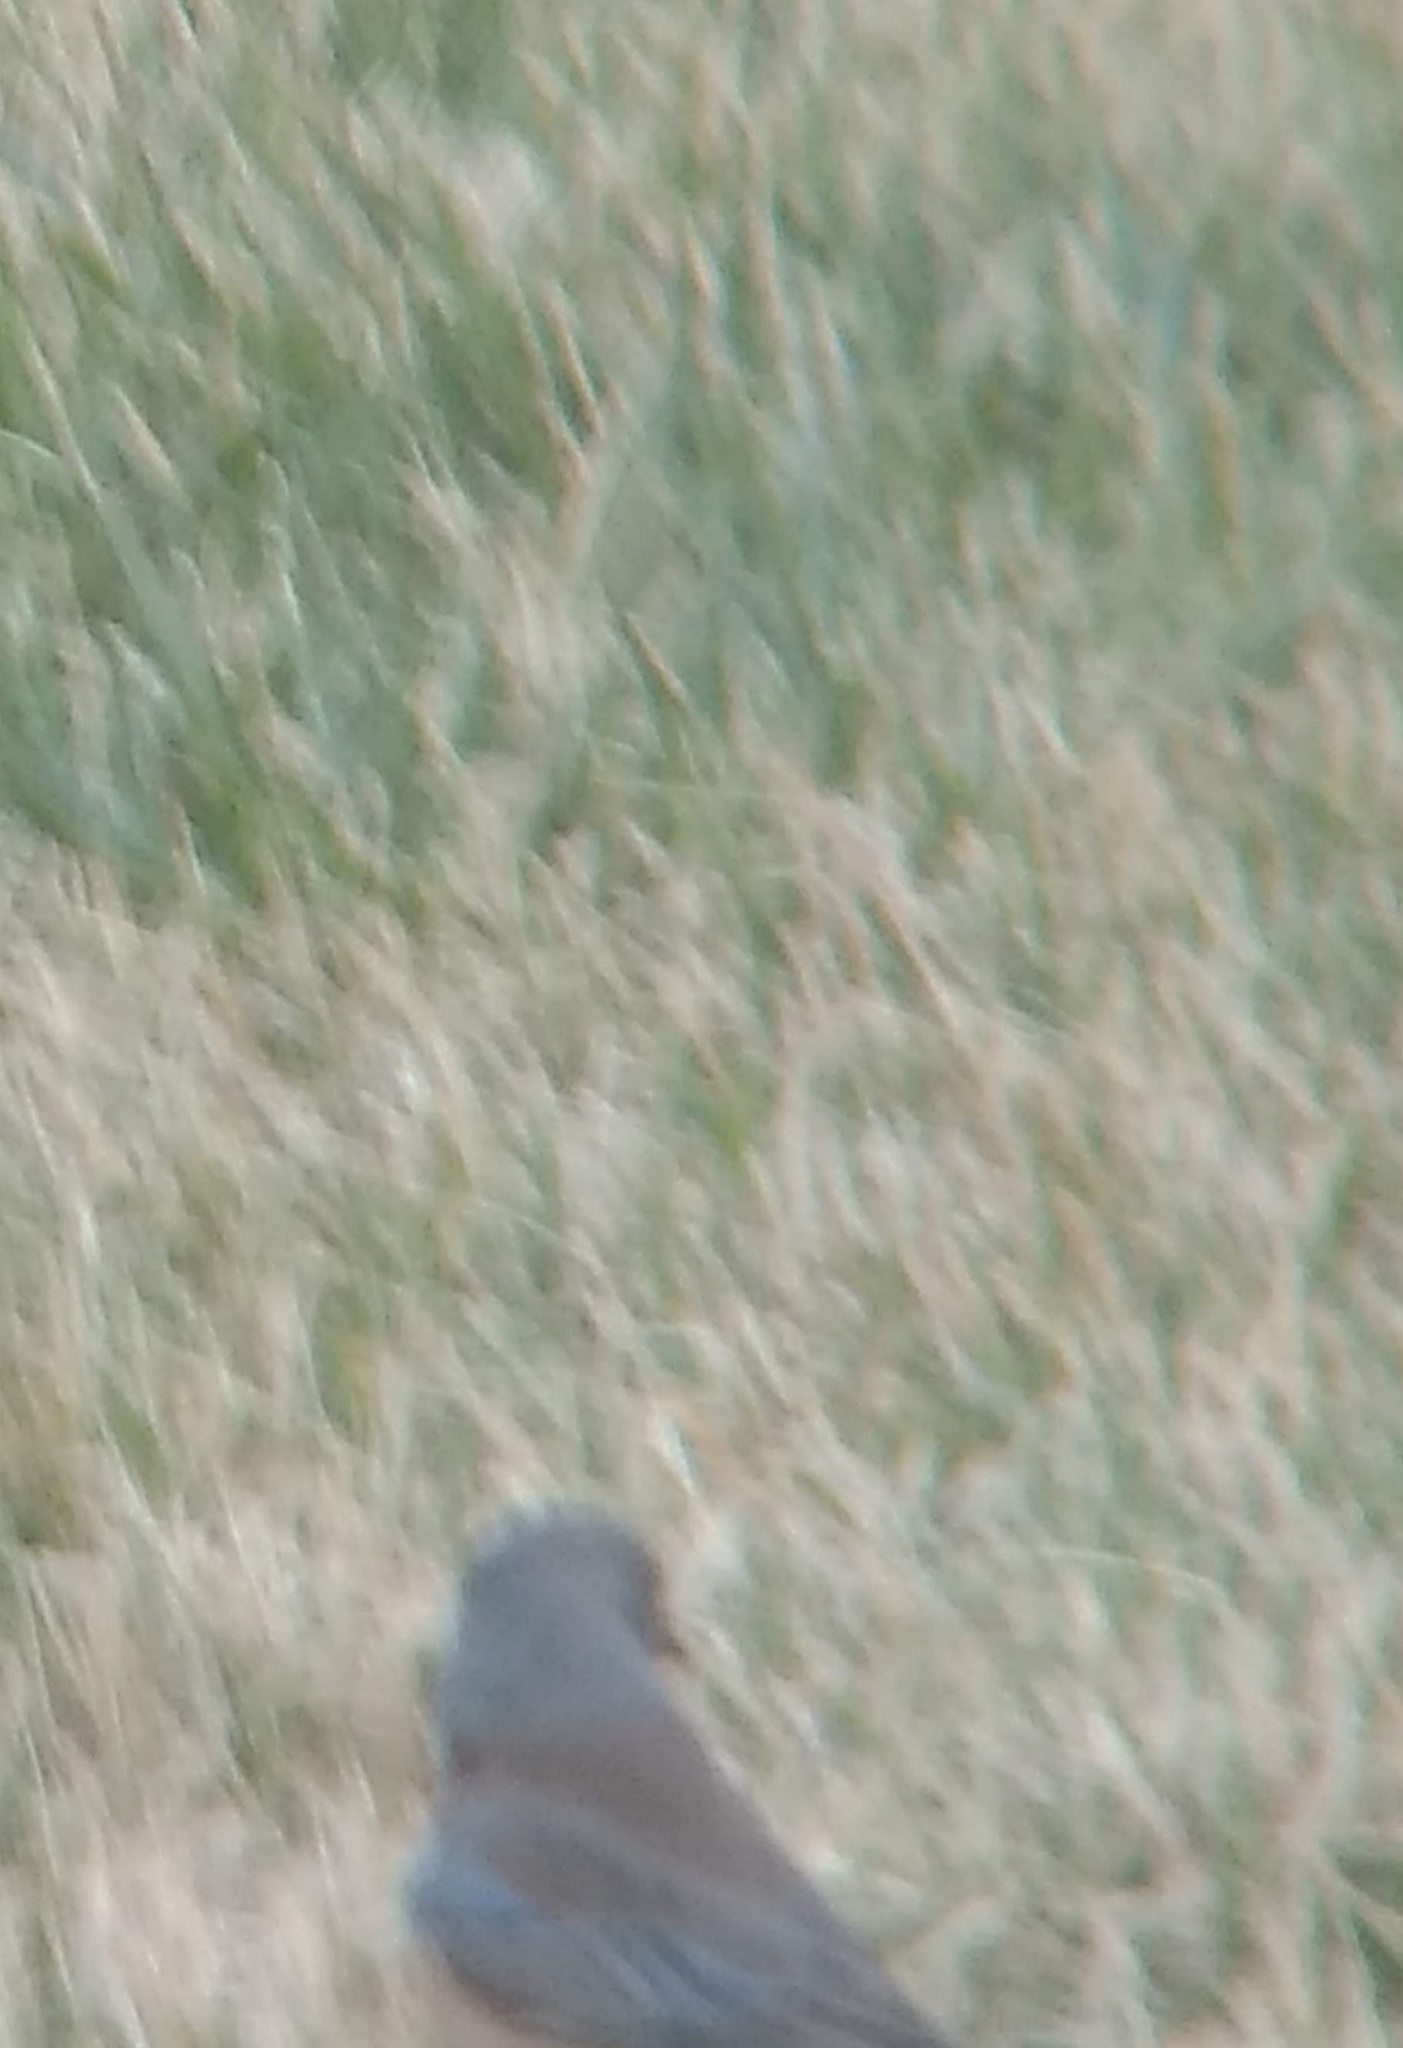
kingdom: Animalia
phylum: Chordata
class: Aves
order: Passeriformes
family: Turdidae
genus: Sialia
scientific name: Sialia mexicana
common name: Western bluebird
